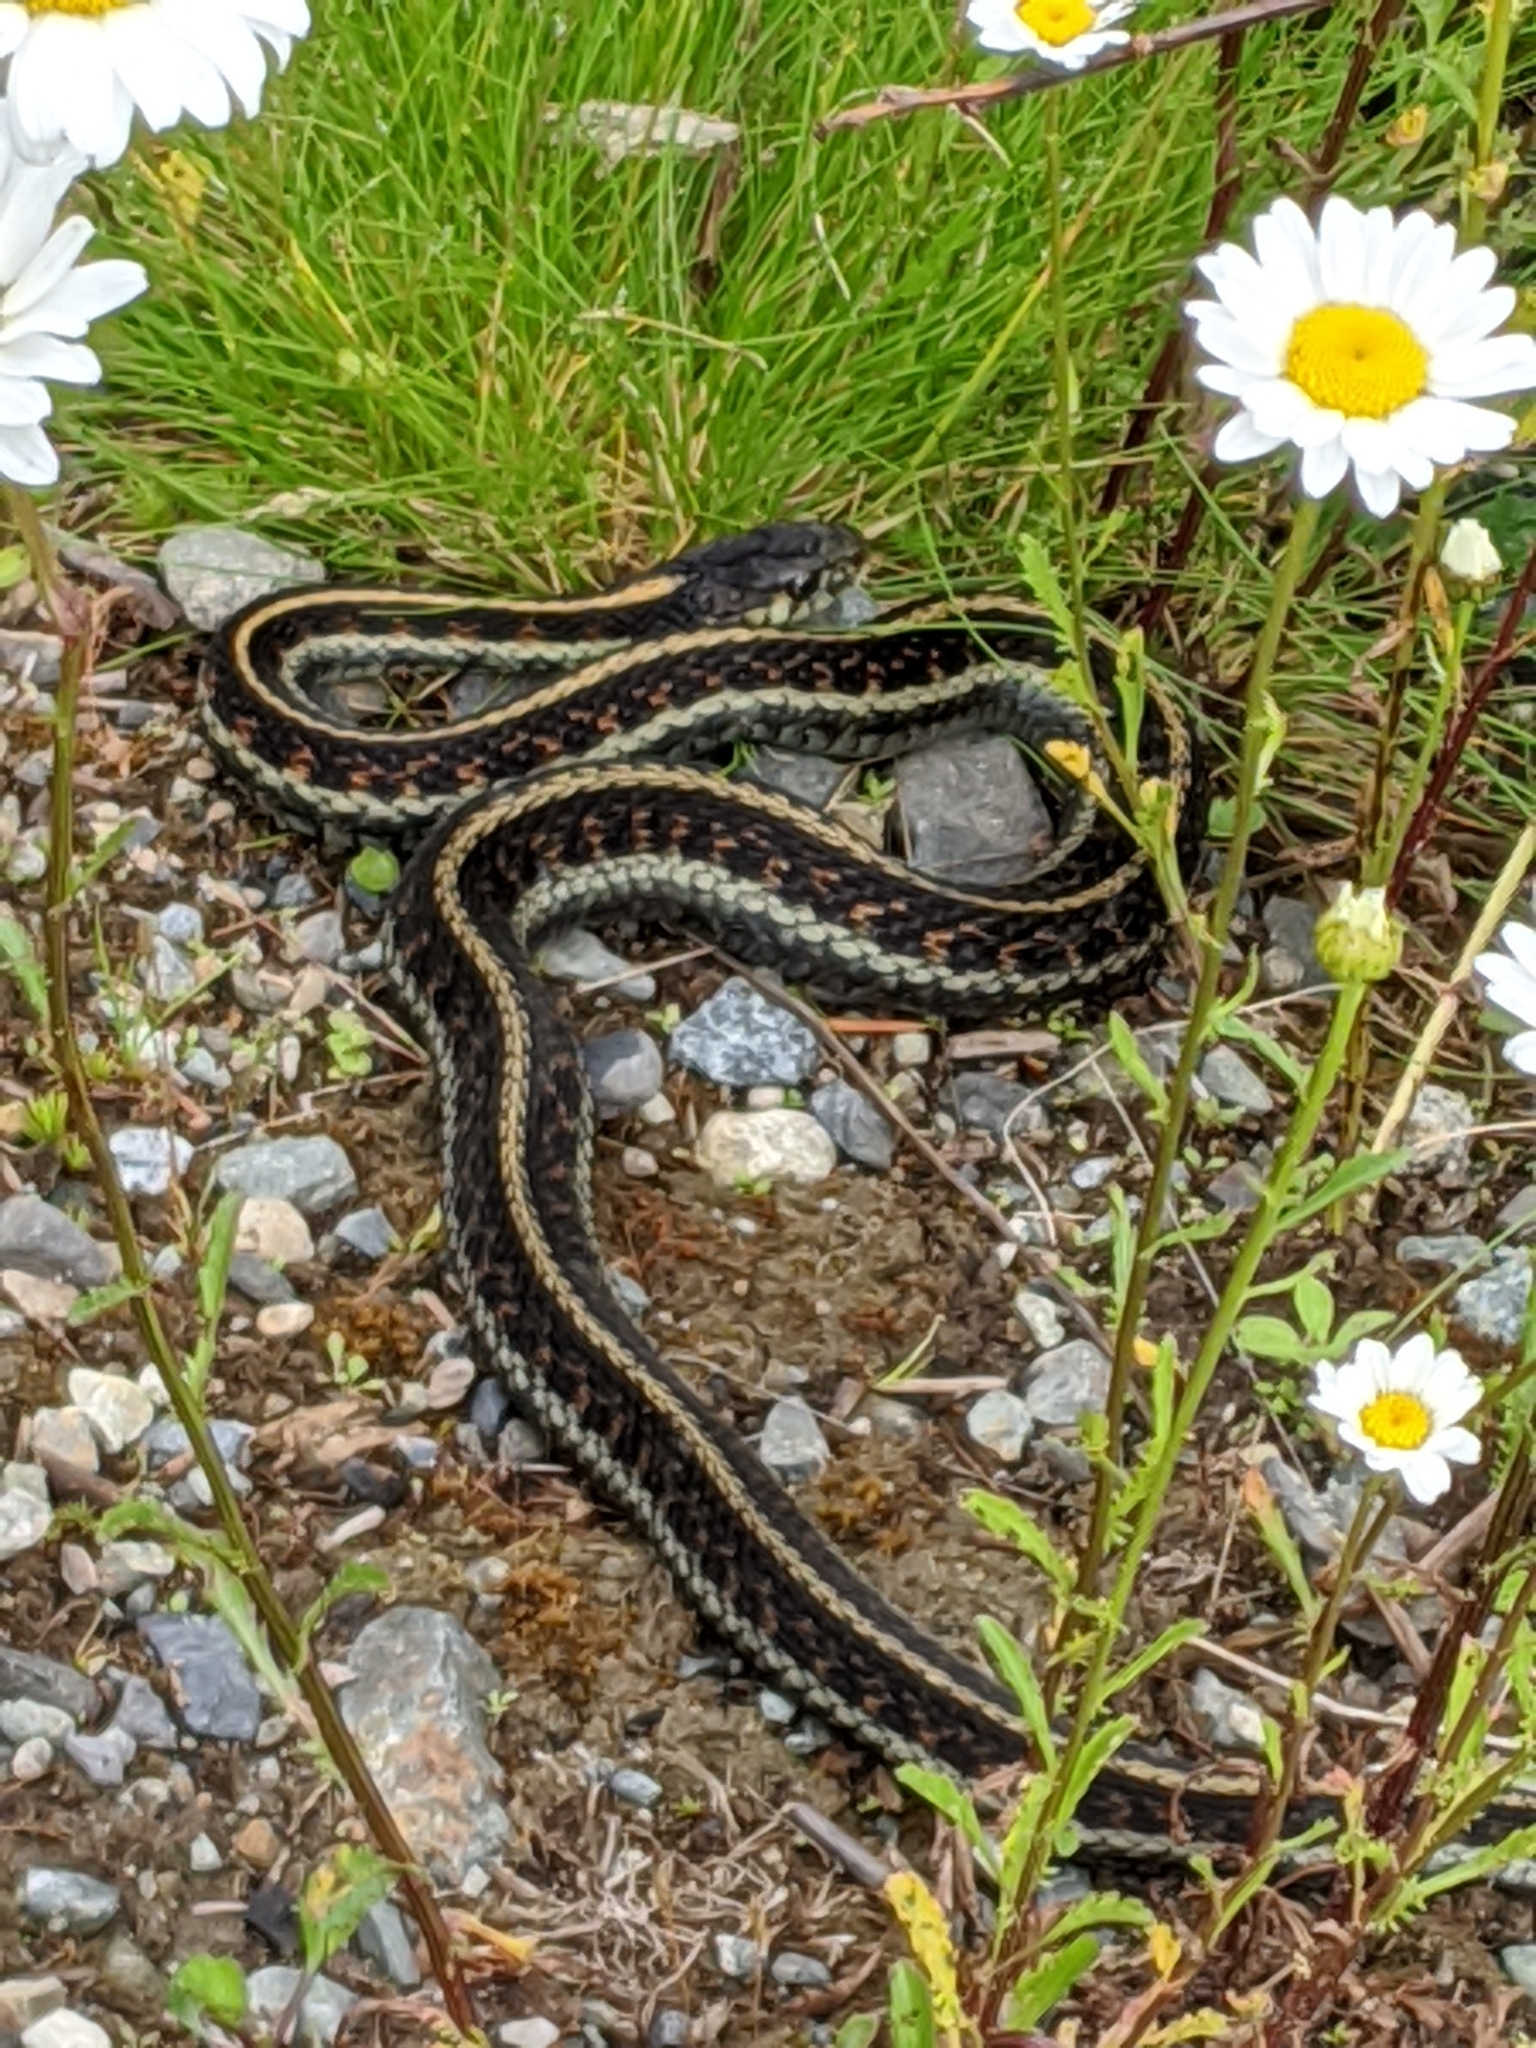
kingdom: Animalia
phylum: Chordata
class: Squamata
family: Colubridae
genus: Thamnophis
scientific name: Thamnophis sirtalis
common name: Common garter snake
